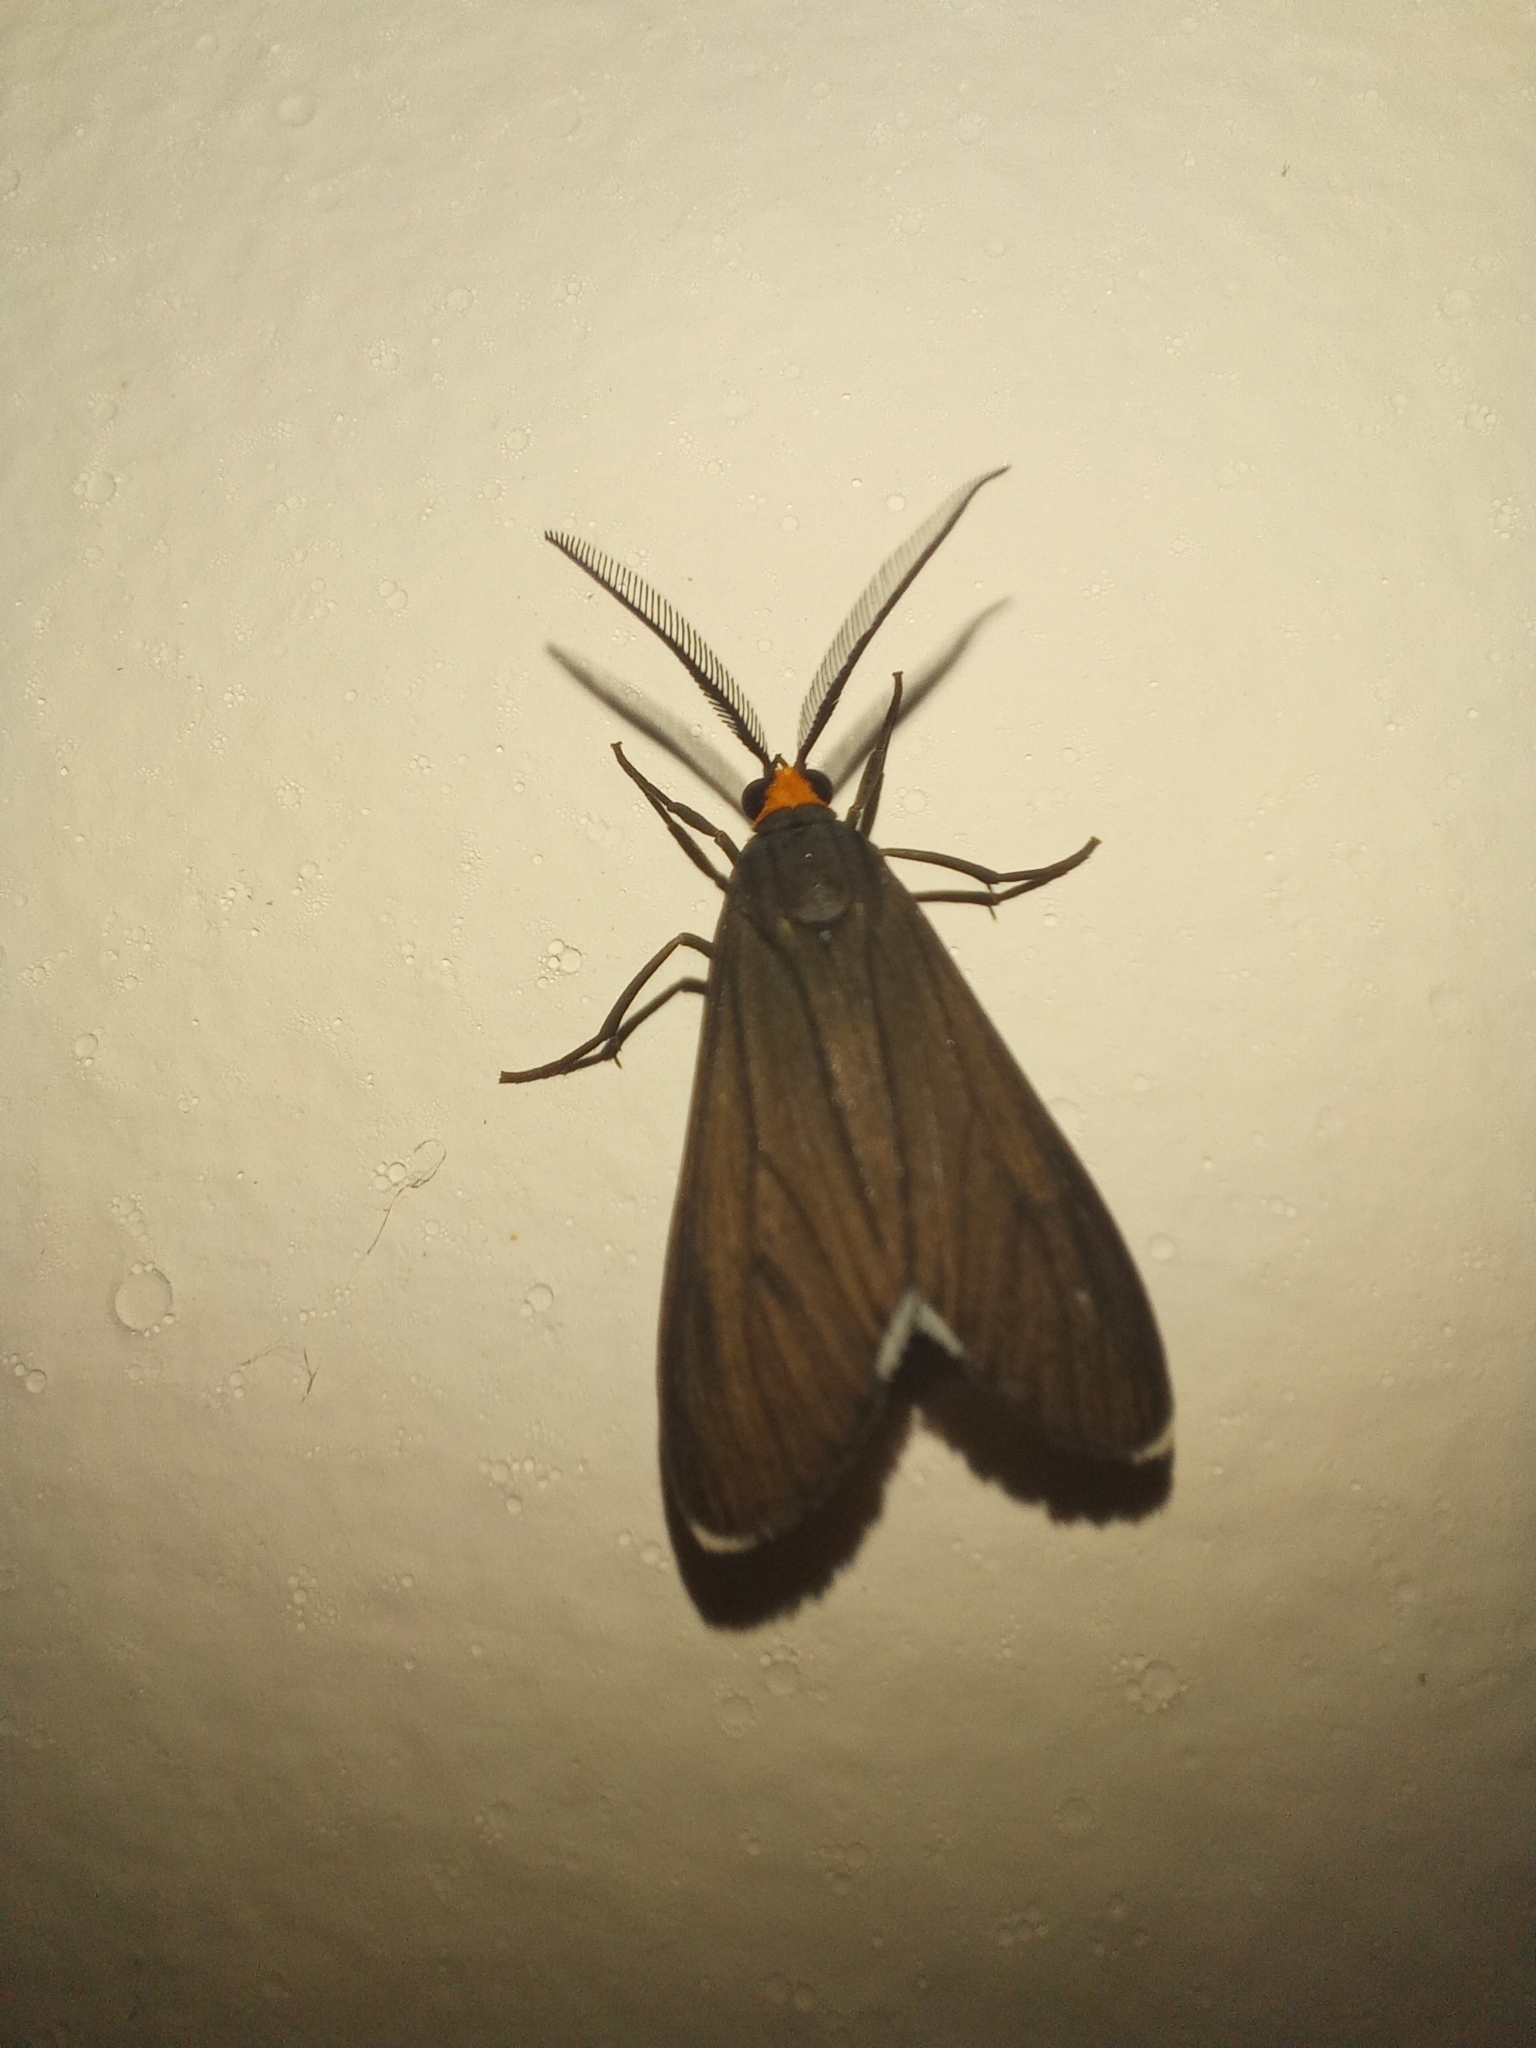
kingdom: Animalia
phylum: Arthropoda
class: Insecta
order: Lepidoptera
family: Erebidae
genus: Ctenucha
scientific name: Ctenucha rubriceps
